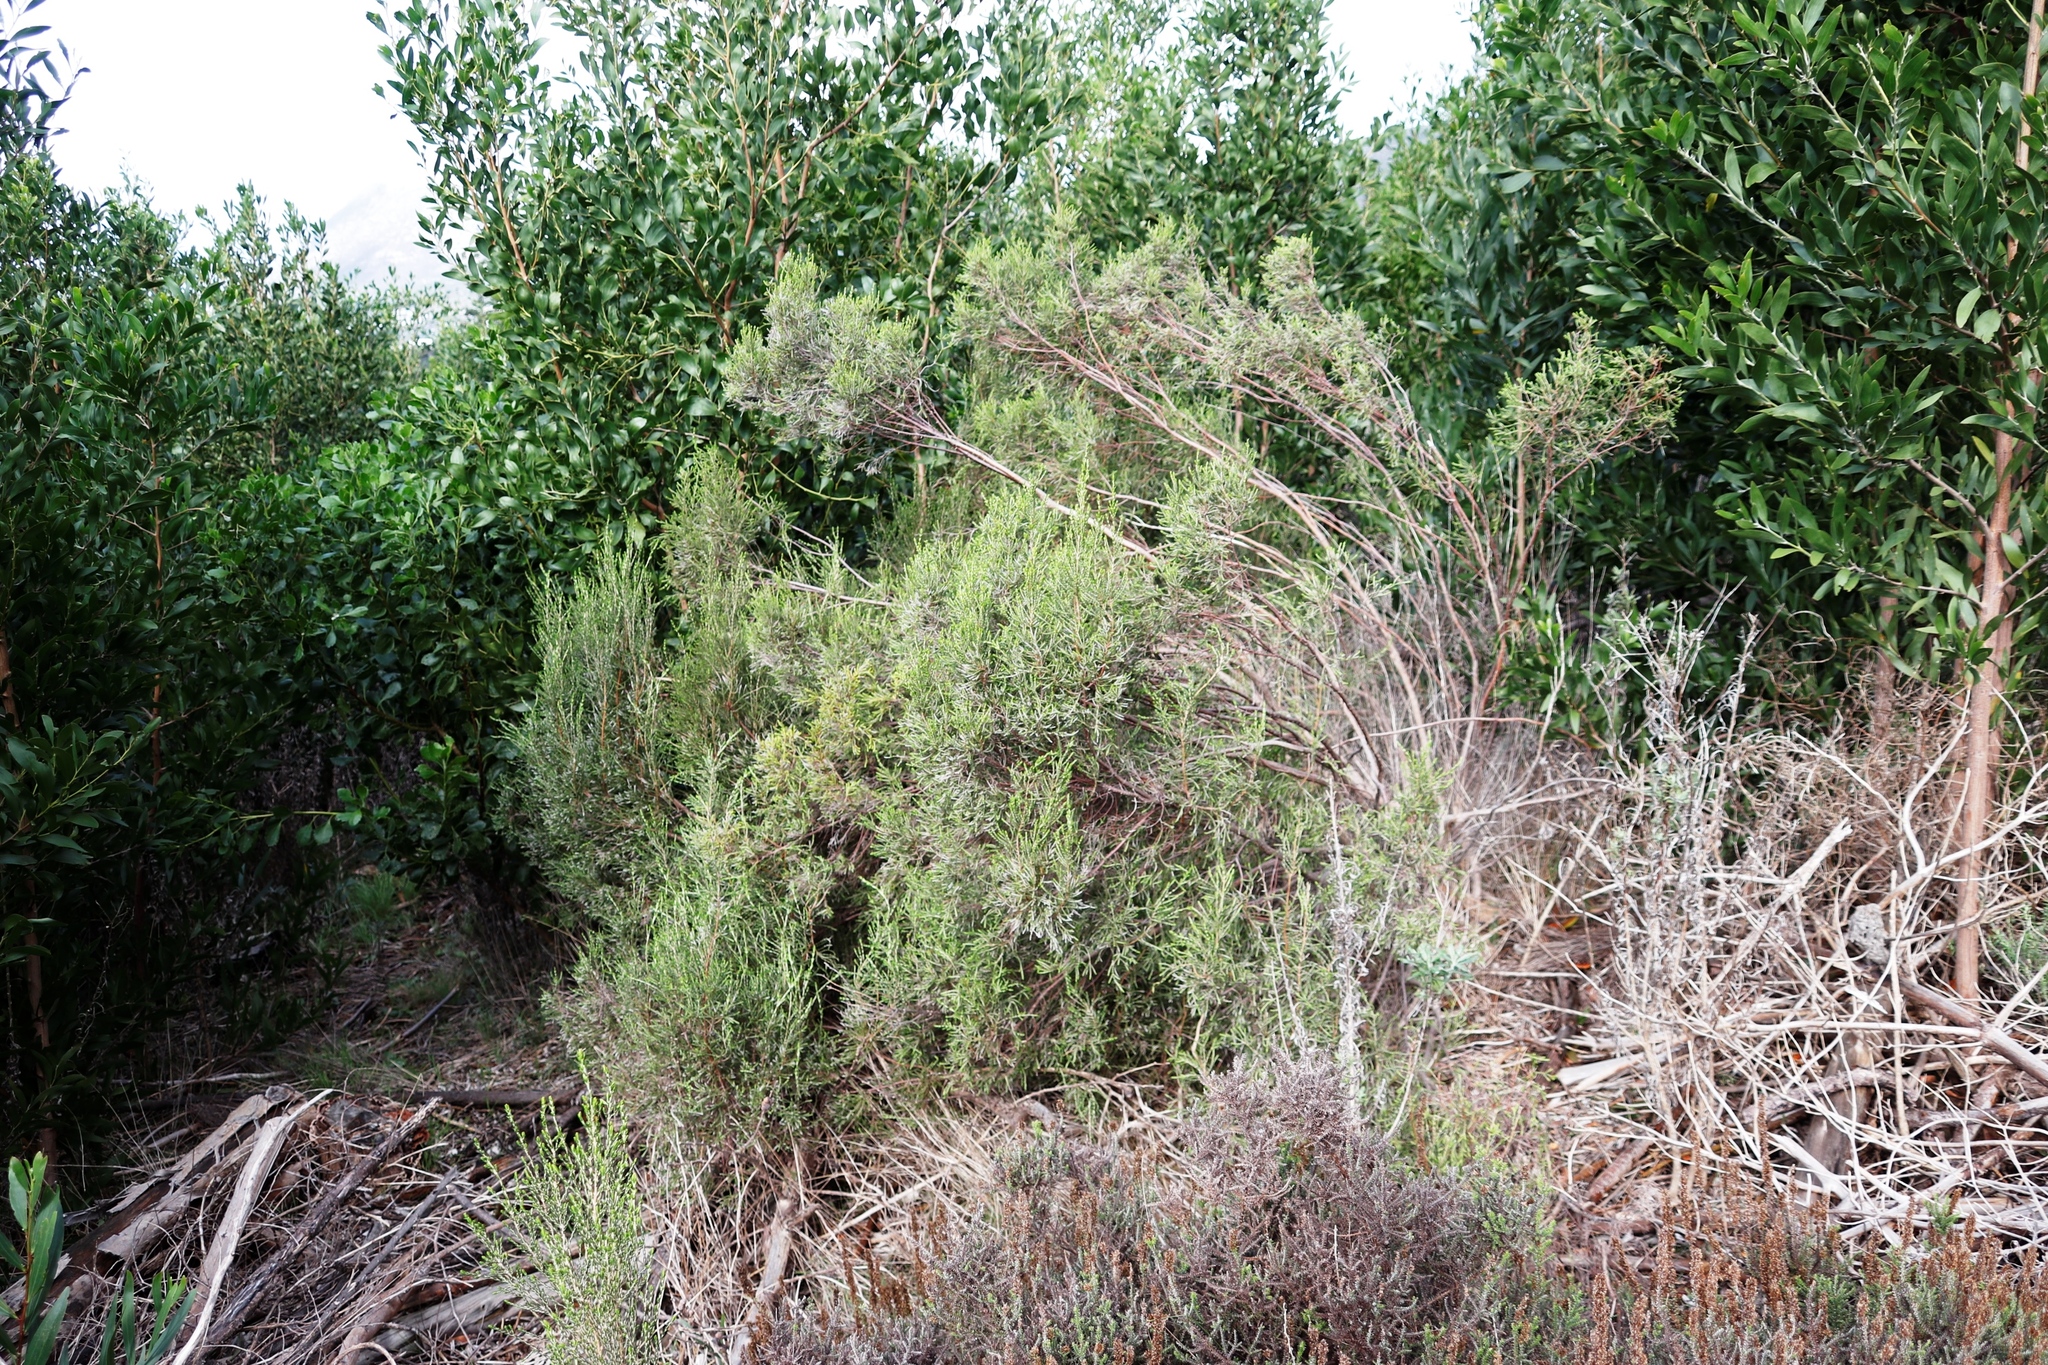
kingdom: Plantae
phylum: Tracheophyta
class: Magnoliopsida
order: Malvales
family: Thymelaeaceae
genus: Passerina
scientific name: Passerina corymbosa
